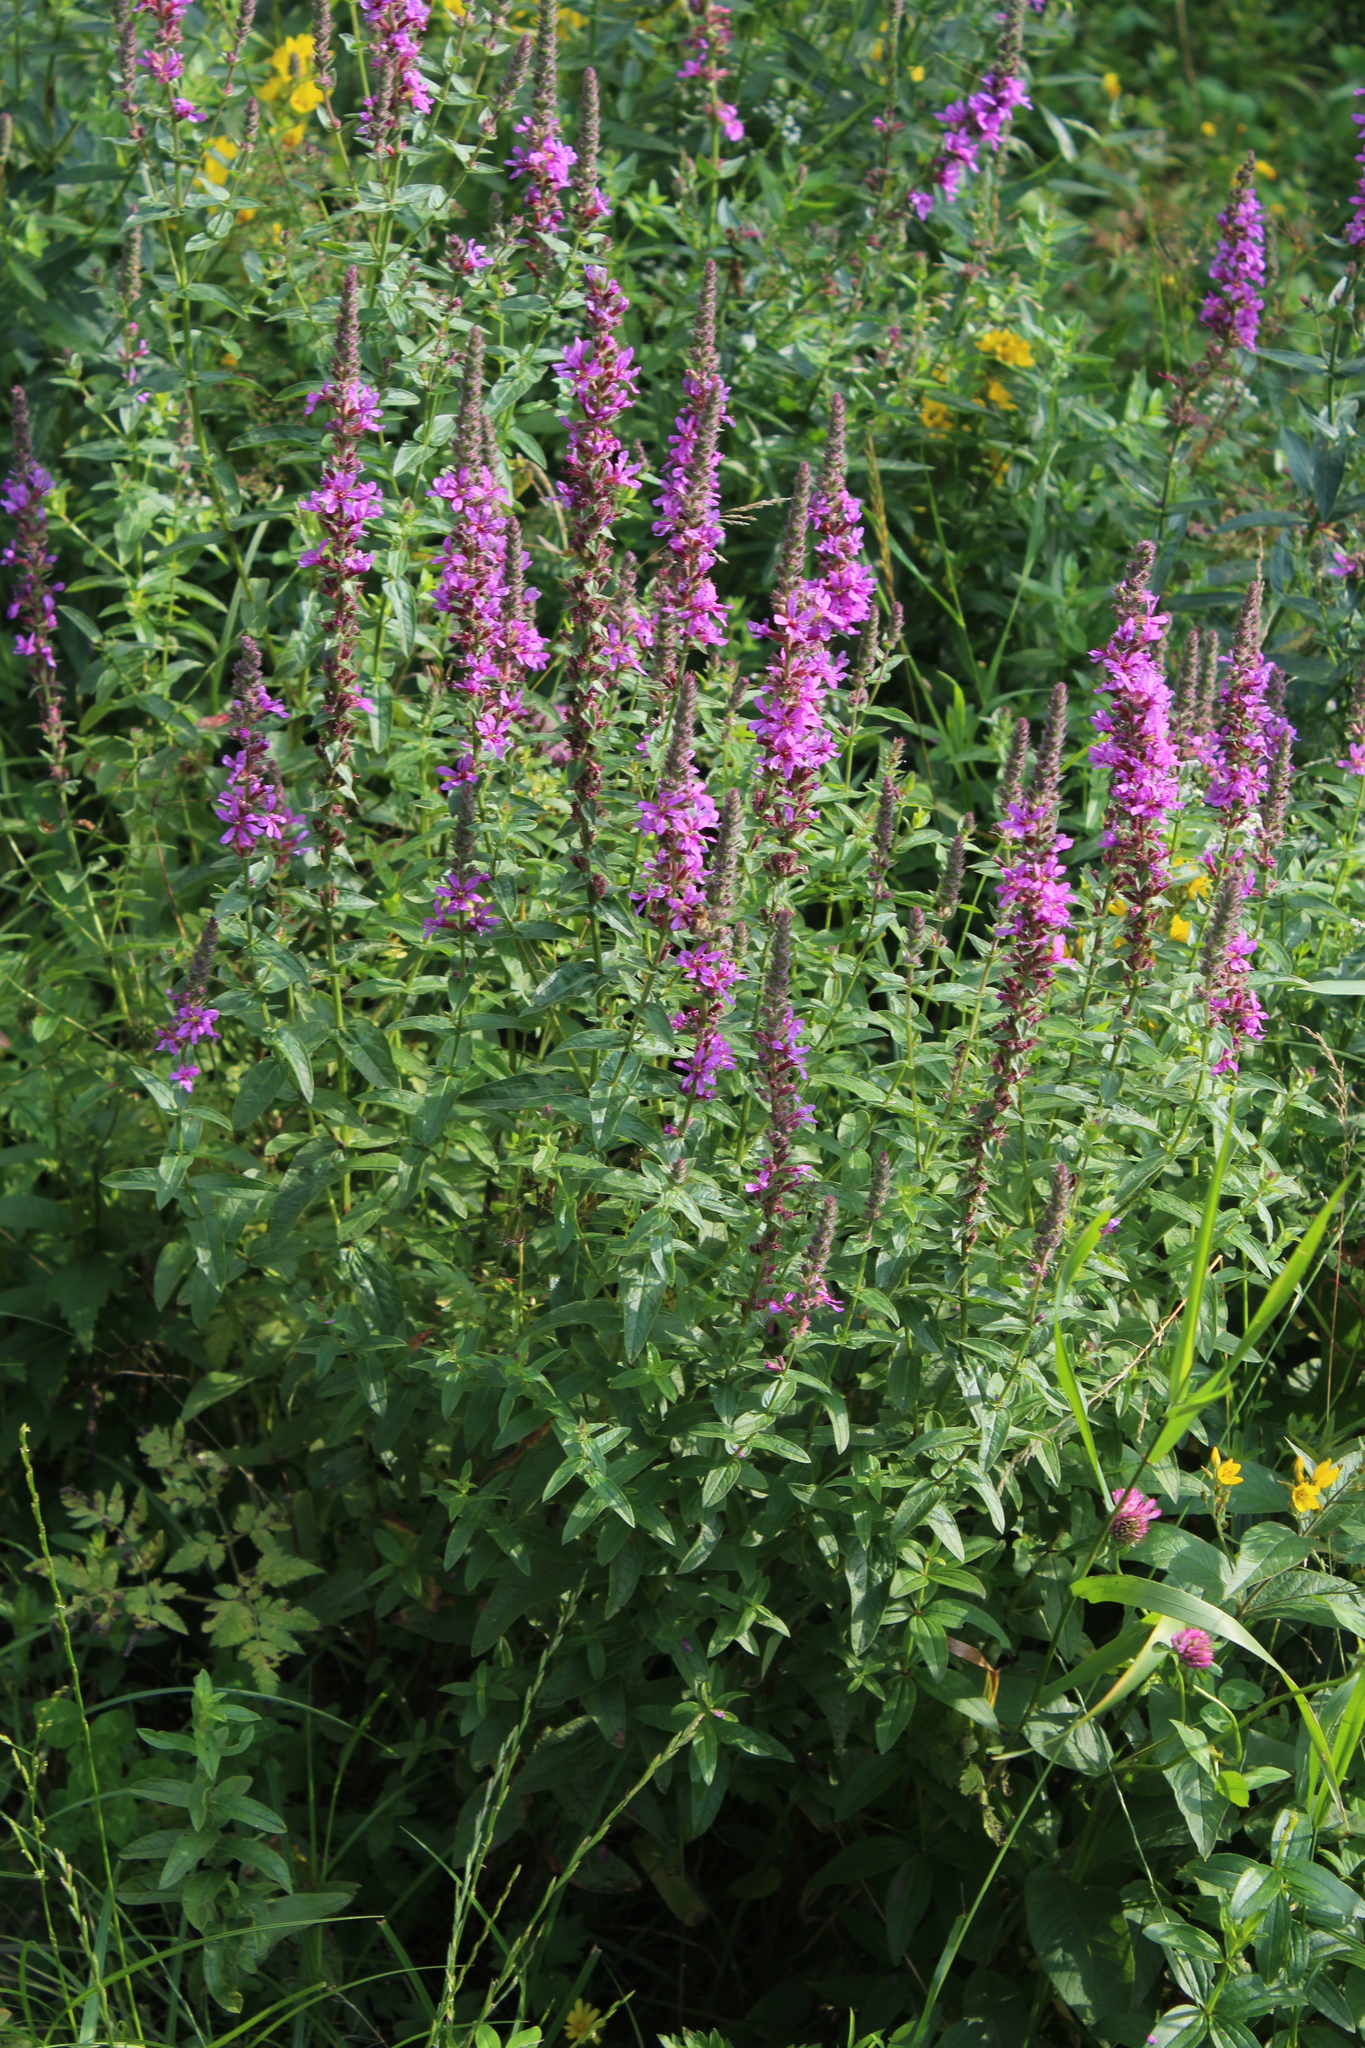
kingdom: Plantae
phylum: Tracheophyta
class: Magnoliopsida
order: Myrtales
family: Lythraceae
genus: Lythrum
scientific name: Lythrum salicaria
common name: Purple loosestrife
